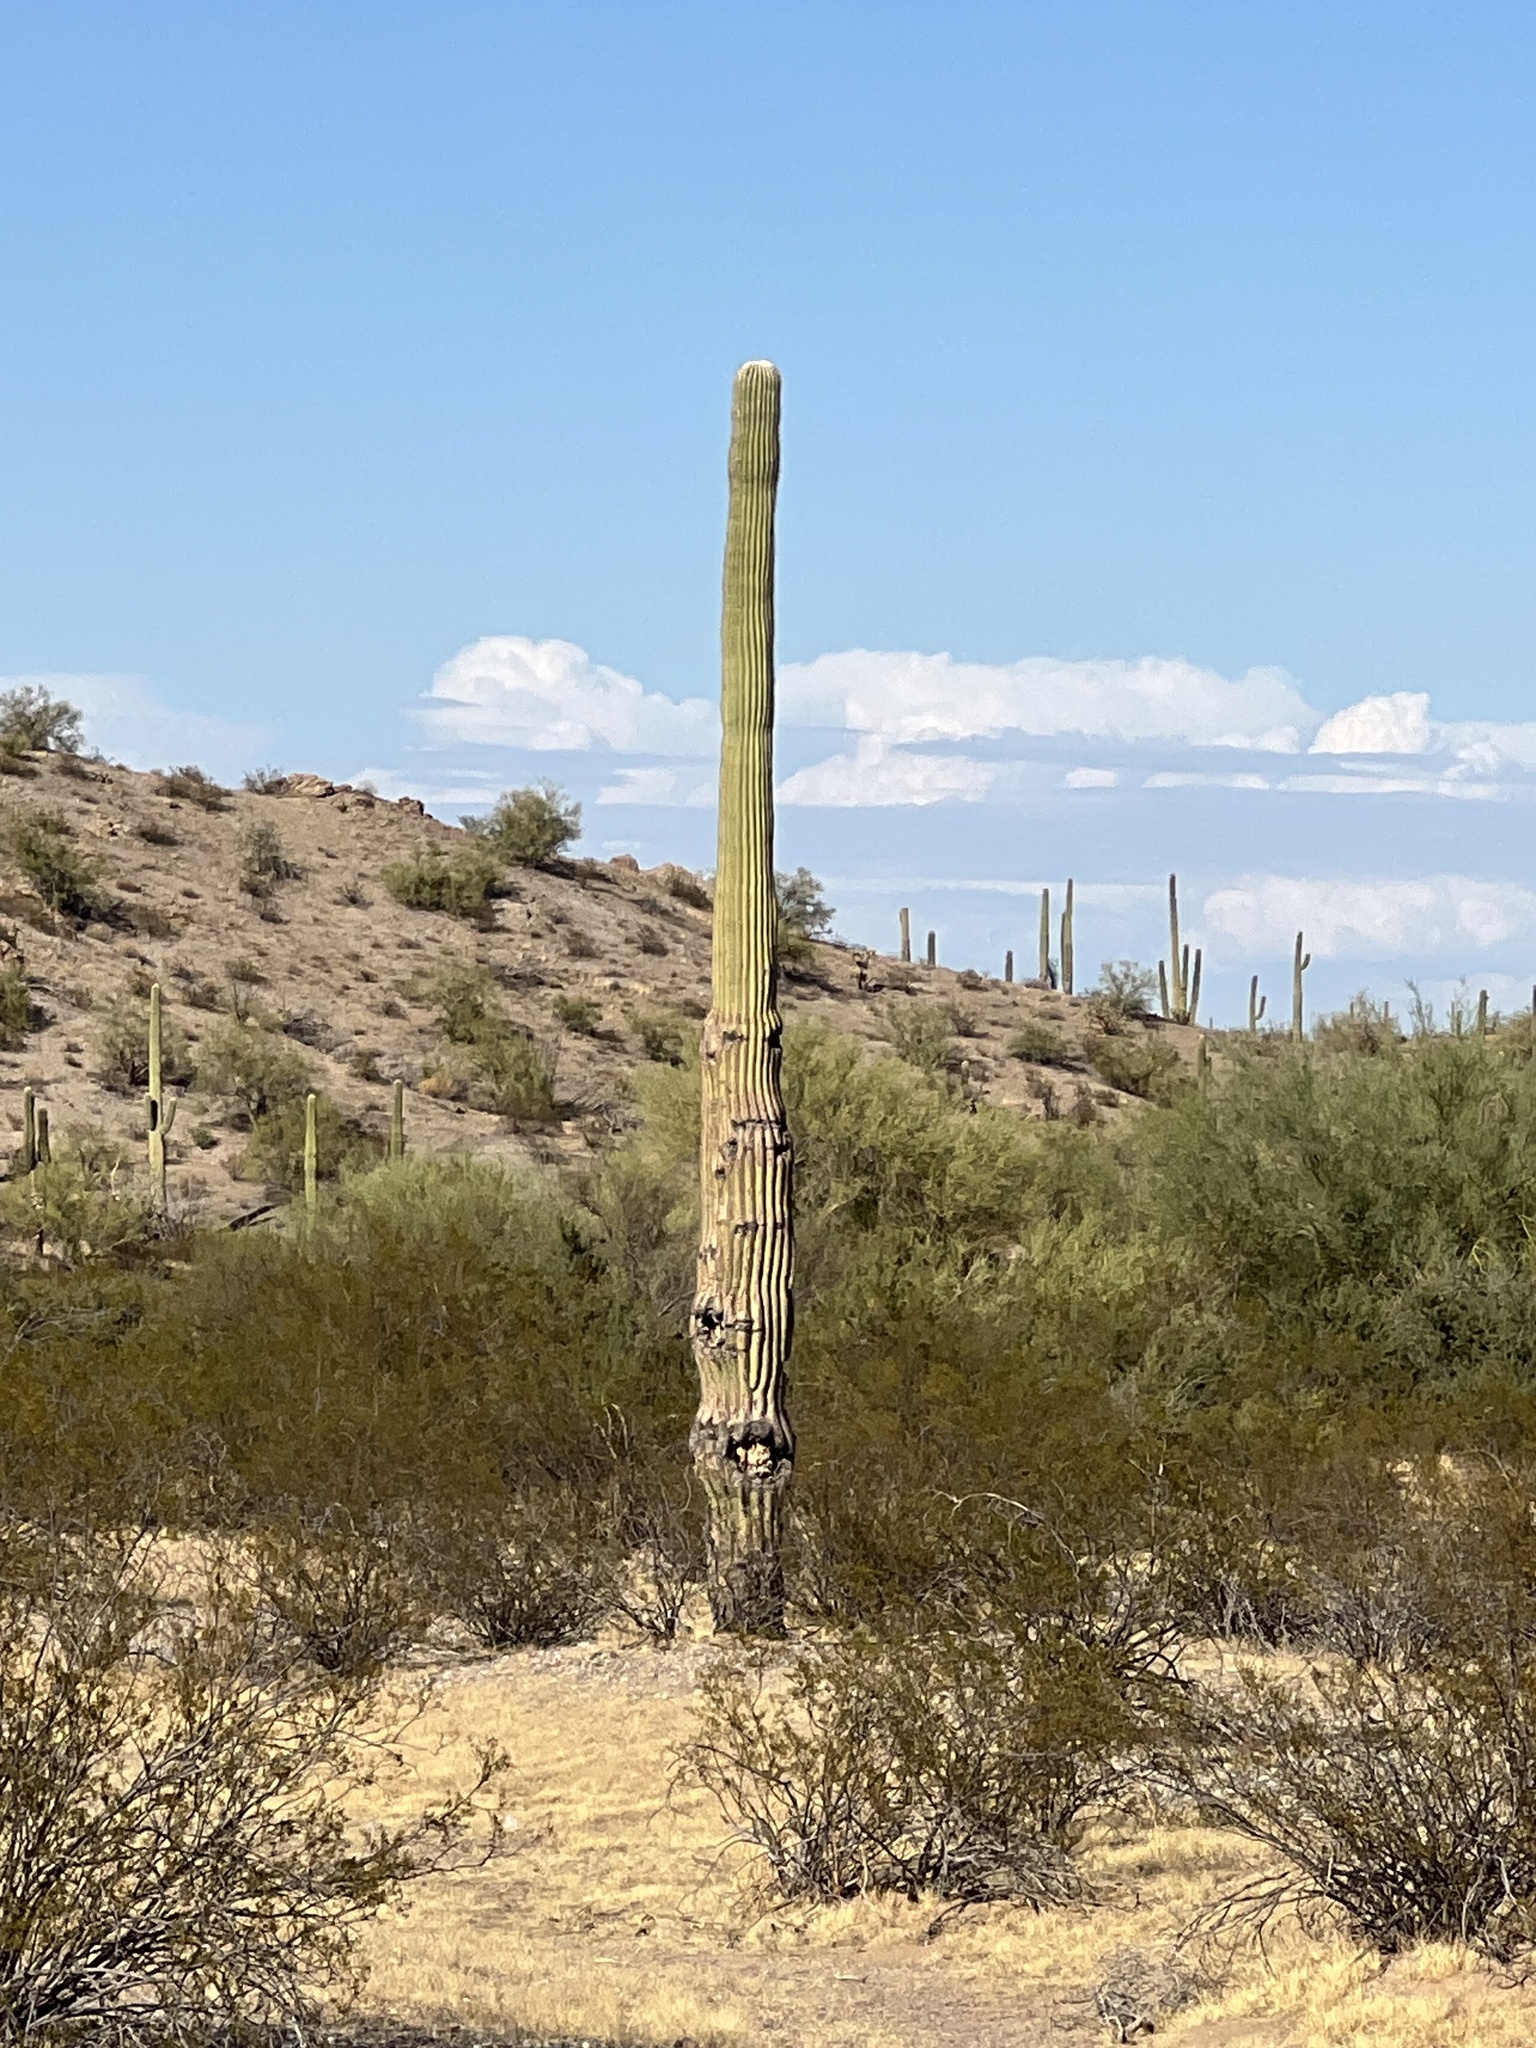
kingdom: Plantae
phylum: Tracheophyta
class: Magnoliopsida
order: Caryophyllales
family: Cactaceae
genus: Carnegiea
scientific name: Carnegiea gigantea
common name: Saguaro
